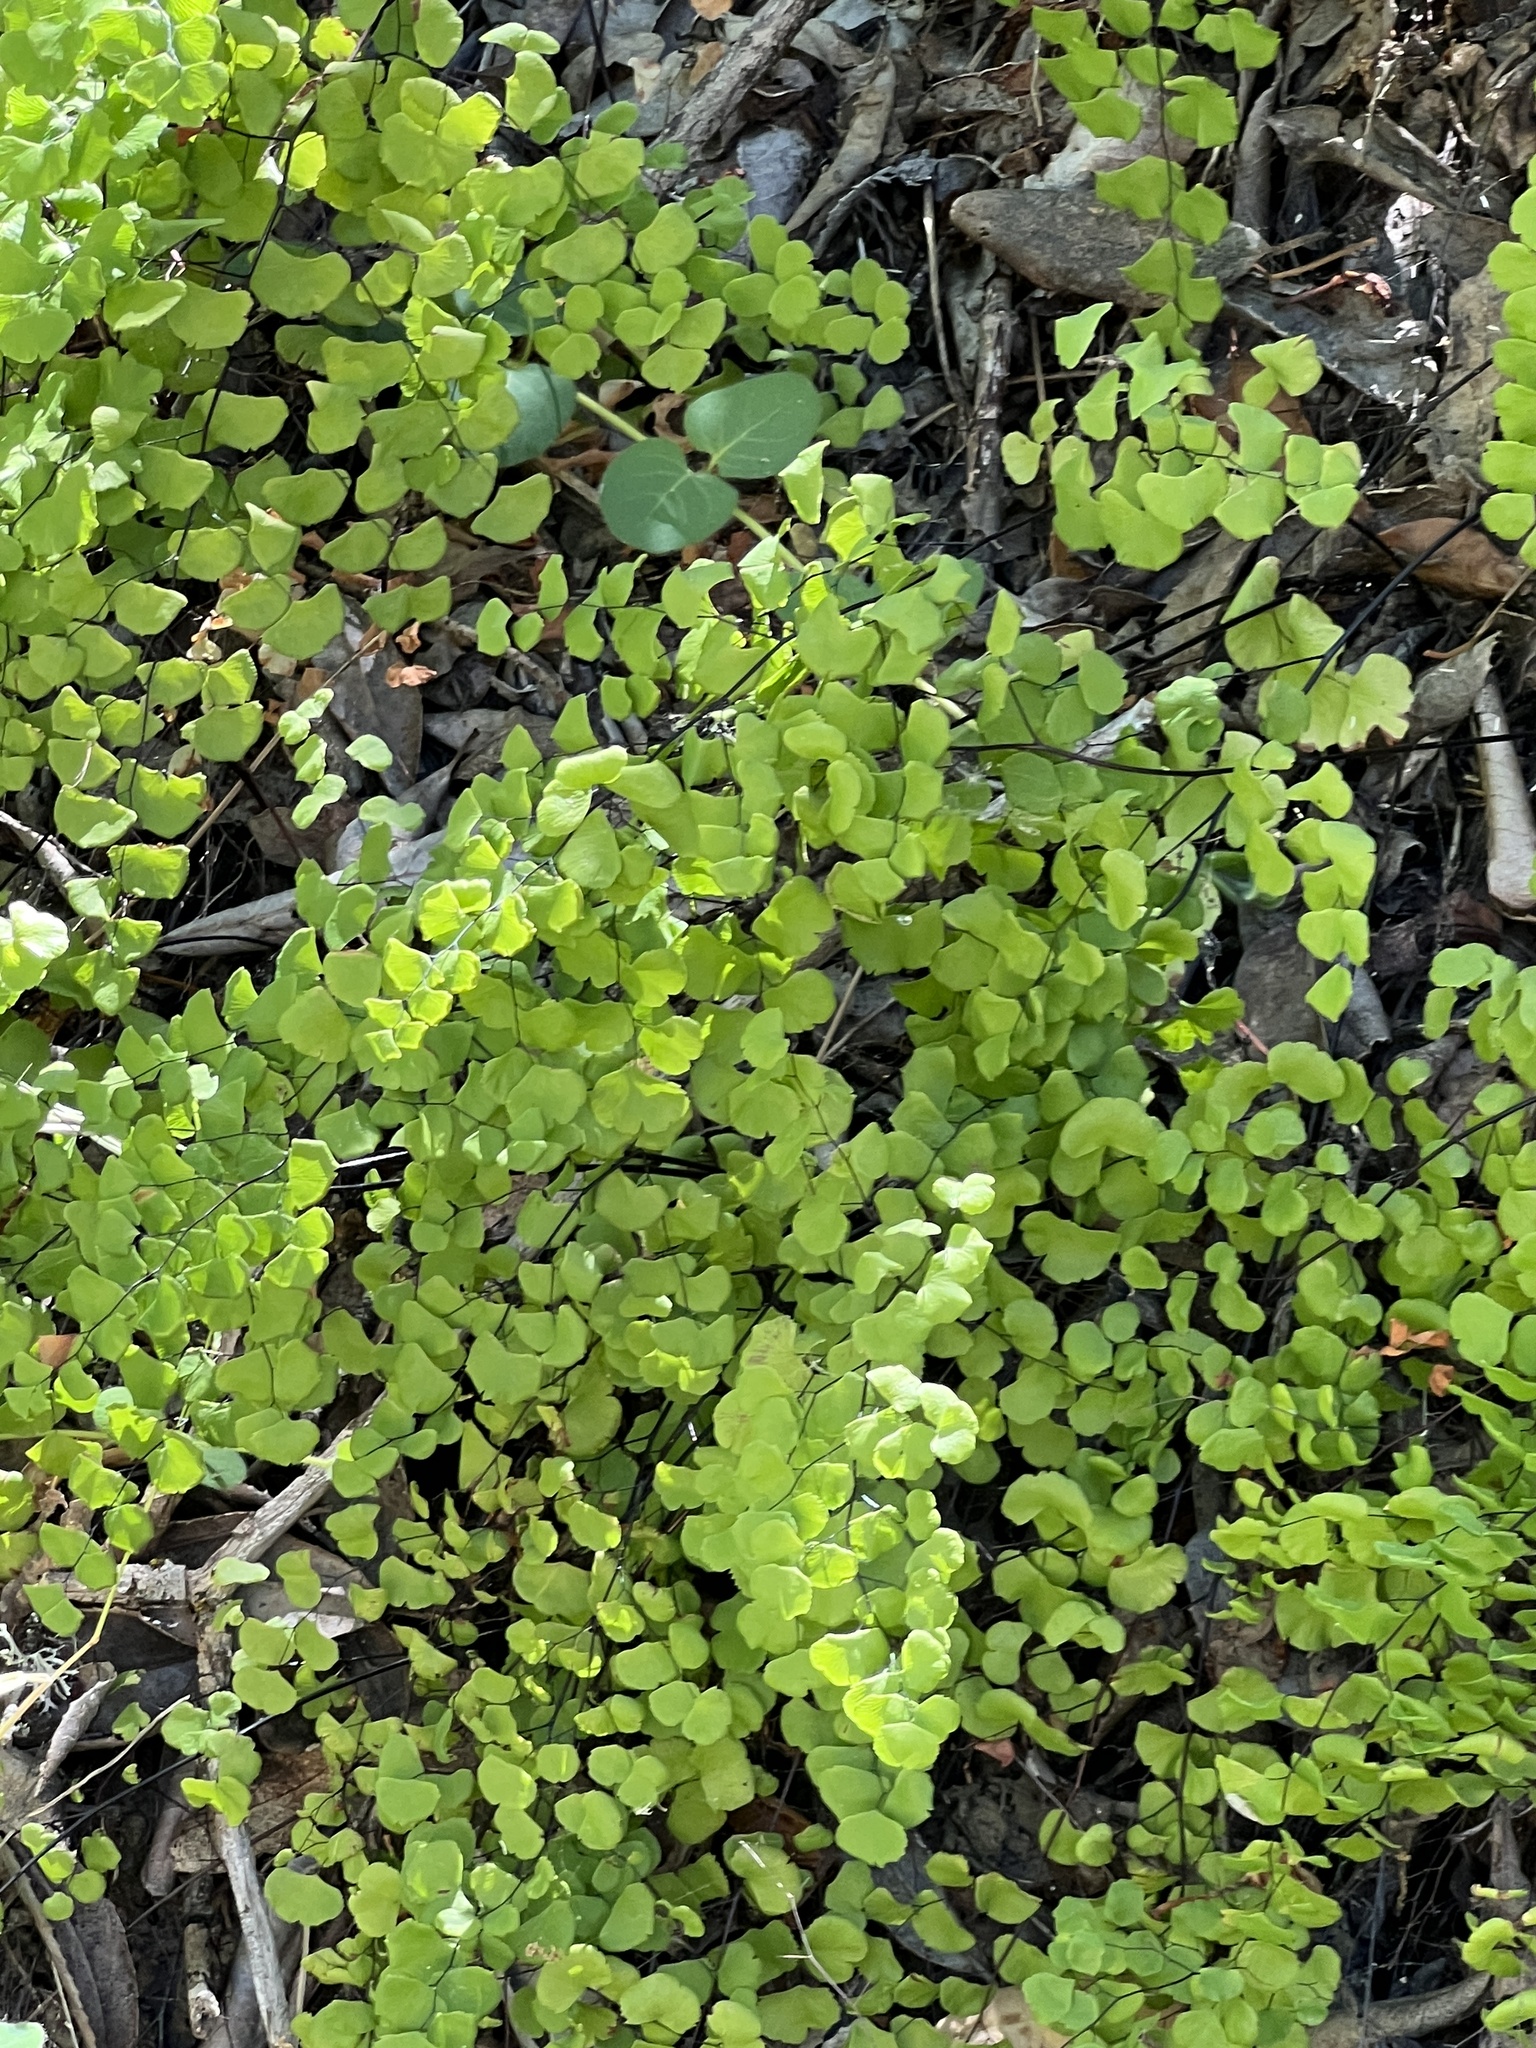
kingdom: Plantae
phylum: Tracheophyta
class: Polypodiopsida
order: Polypodiales
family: Pteridaceae
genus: Adiantum
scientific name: Adiantum jordanii
